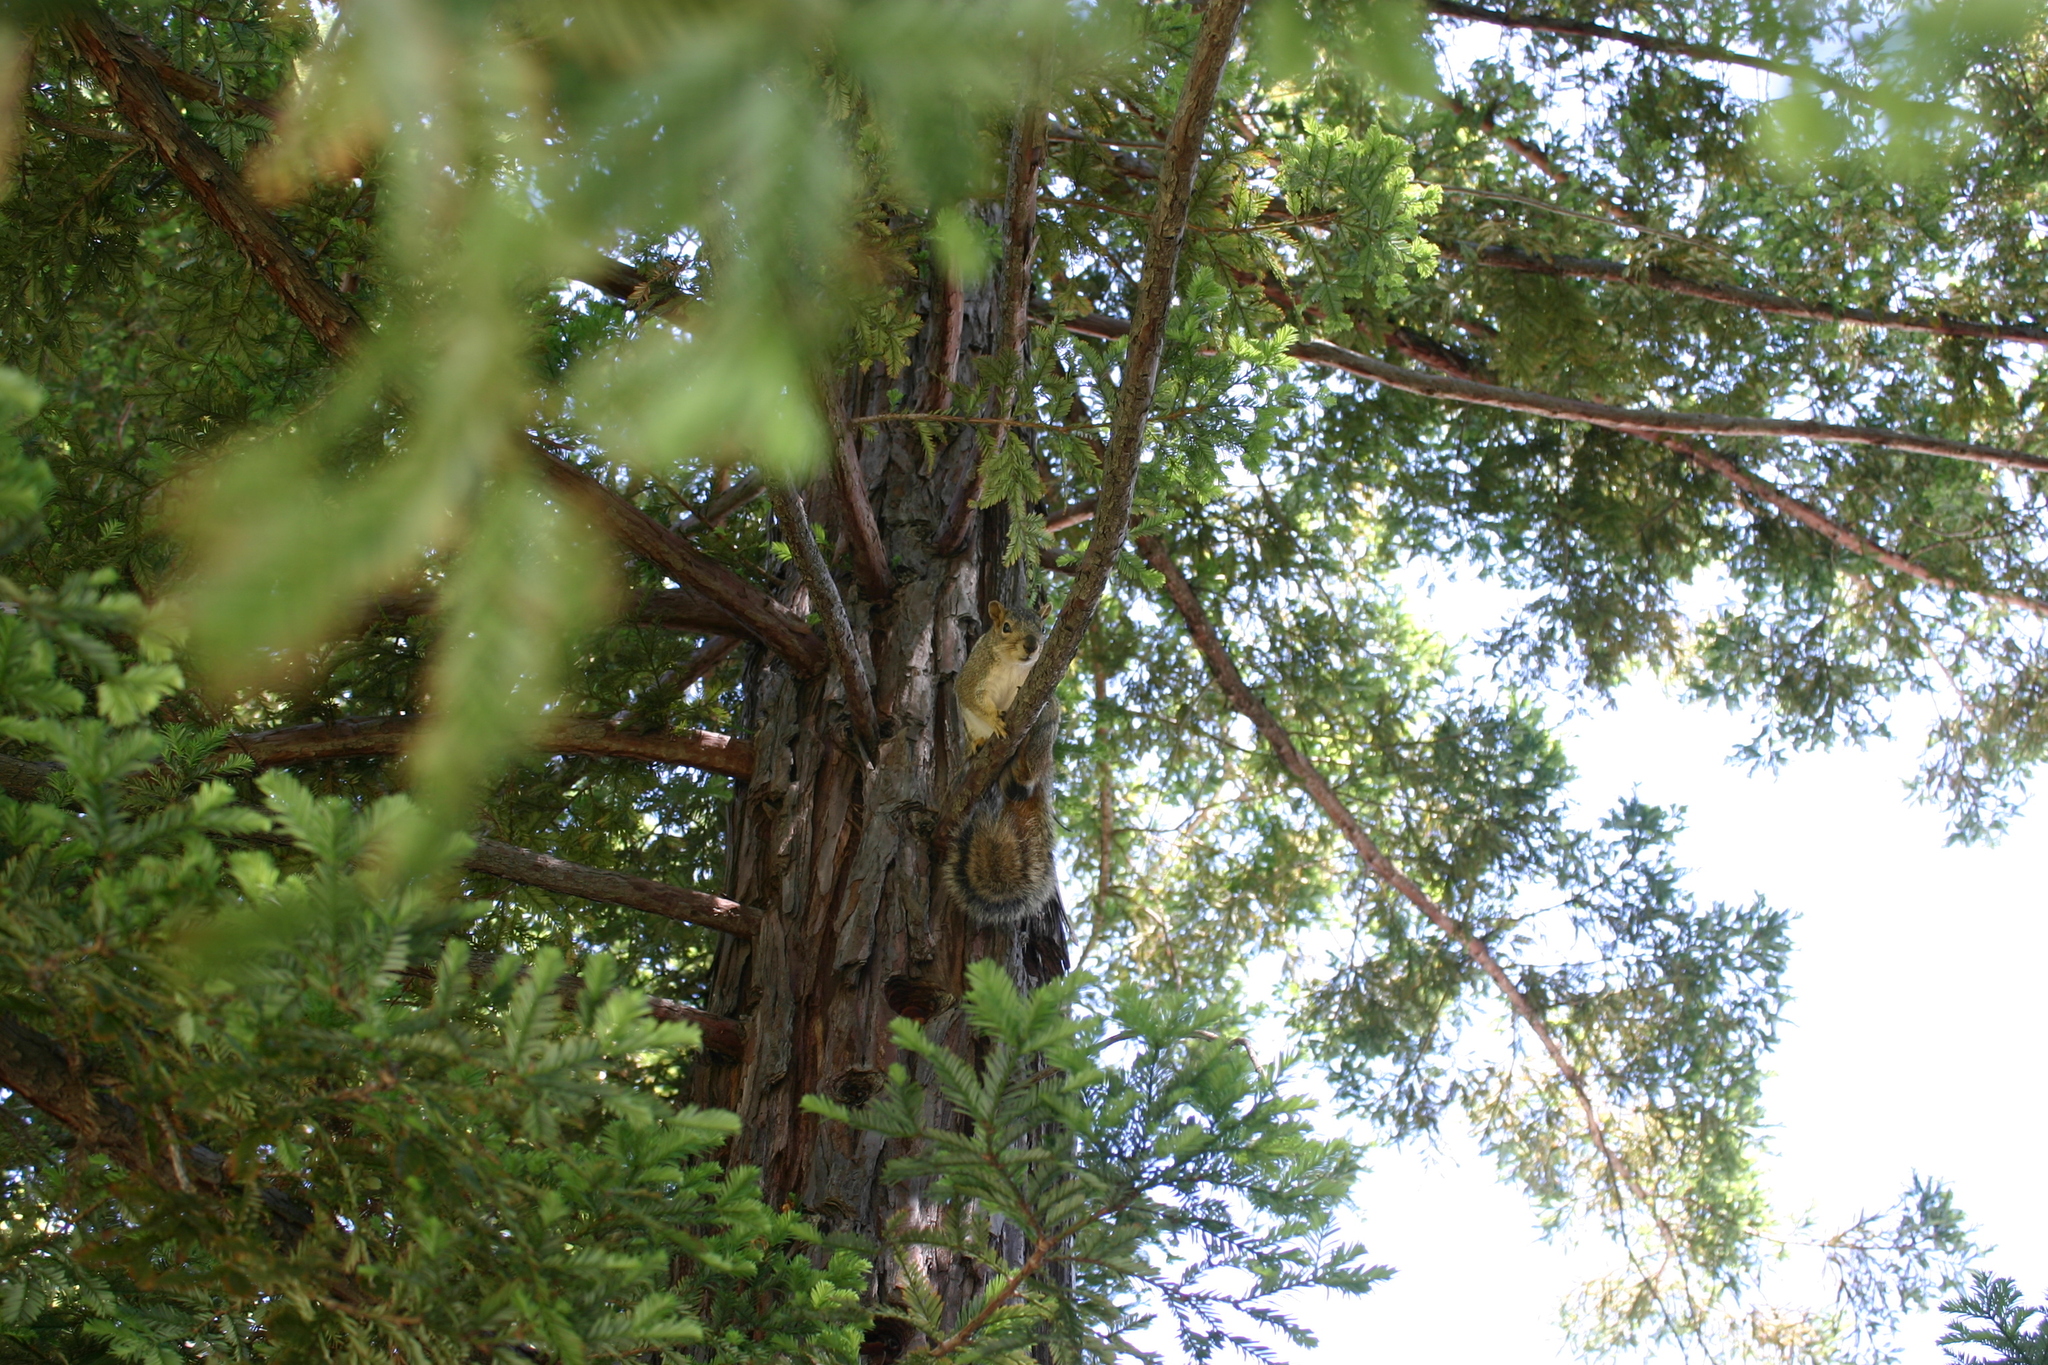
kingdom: Animalia
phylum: Chordata
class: Mammalia
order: Rodentia
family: Sciuridae
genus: Sciurus
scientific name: Sciurus niger
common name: Fox squirrel
